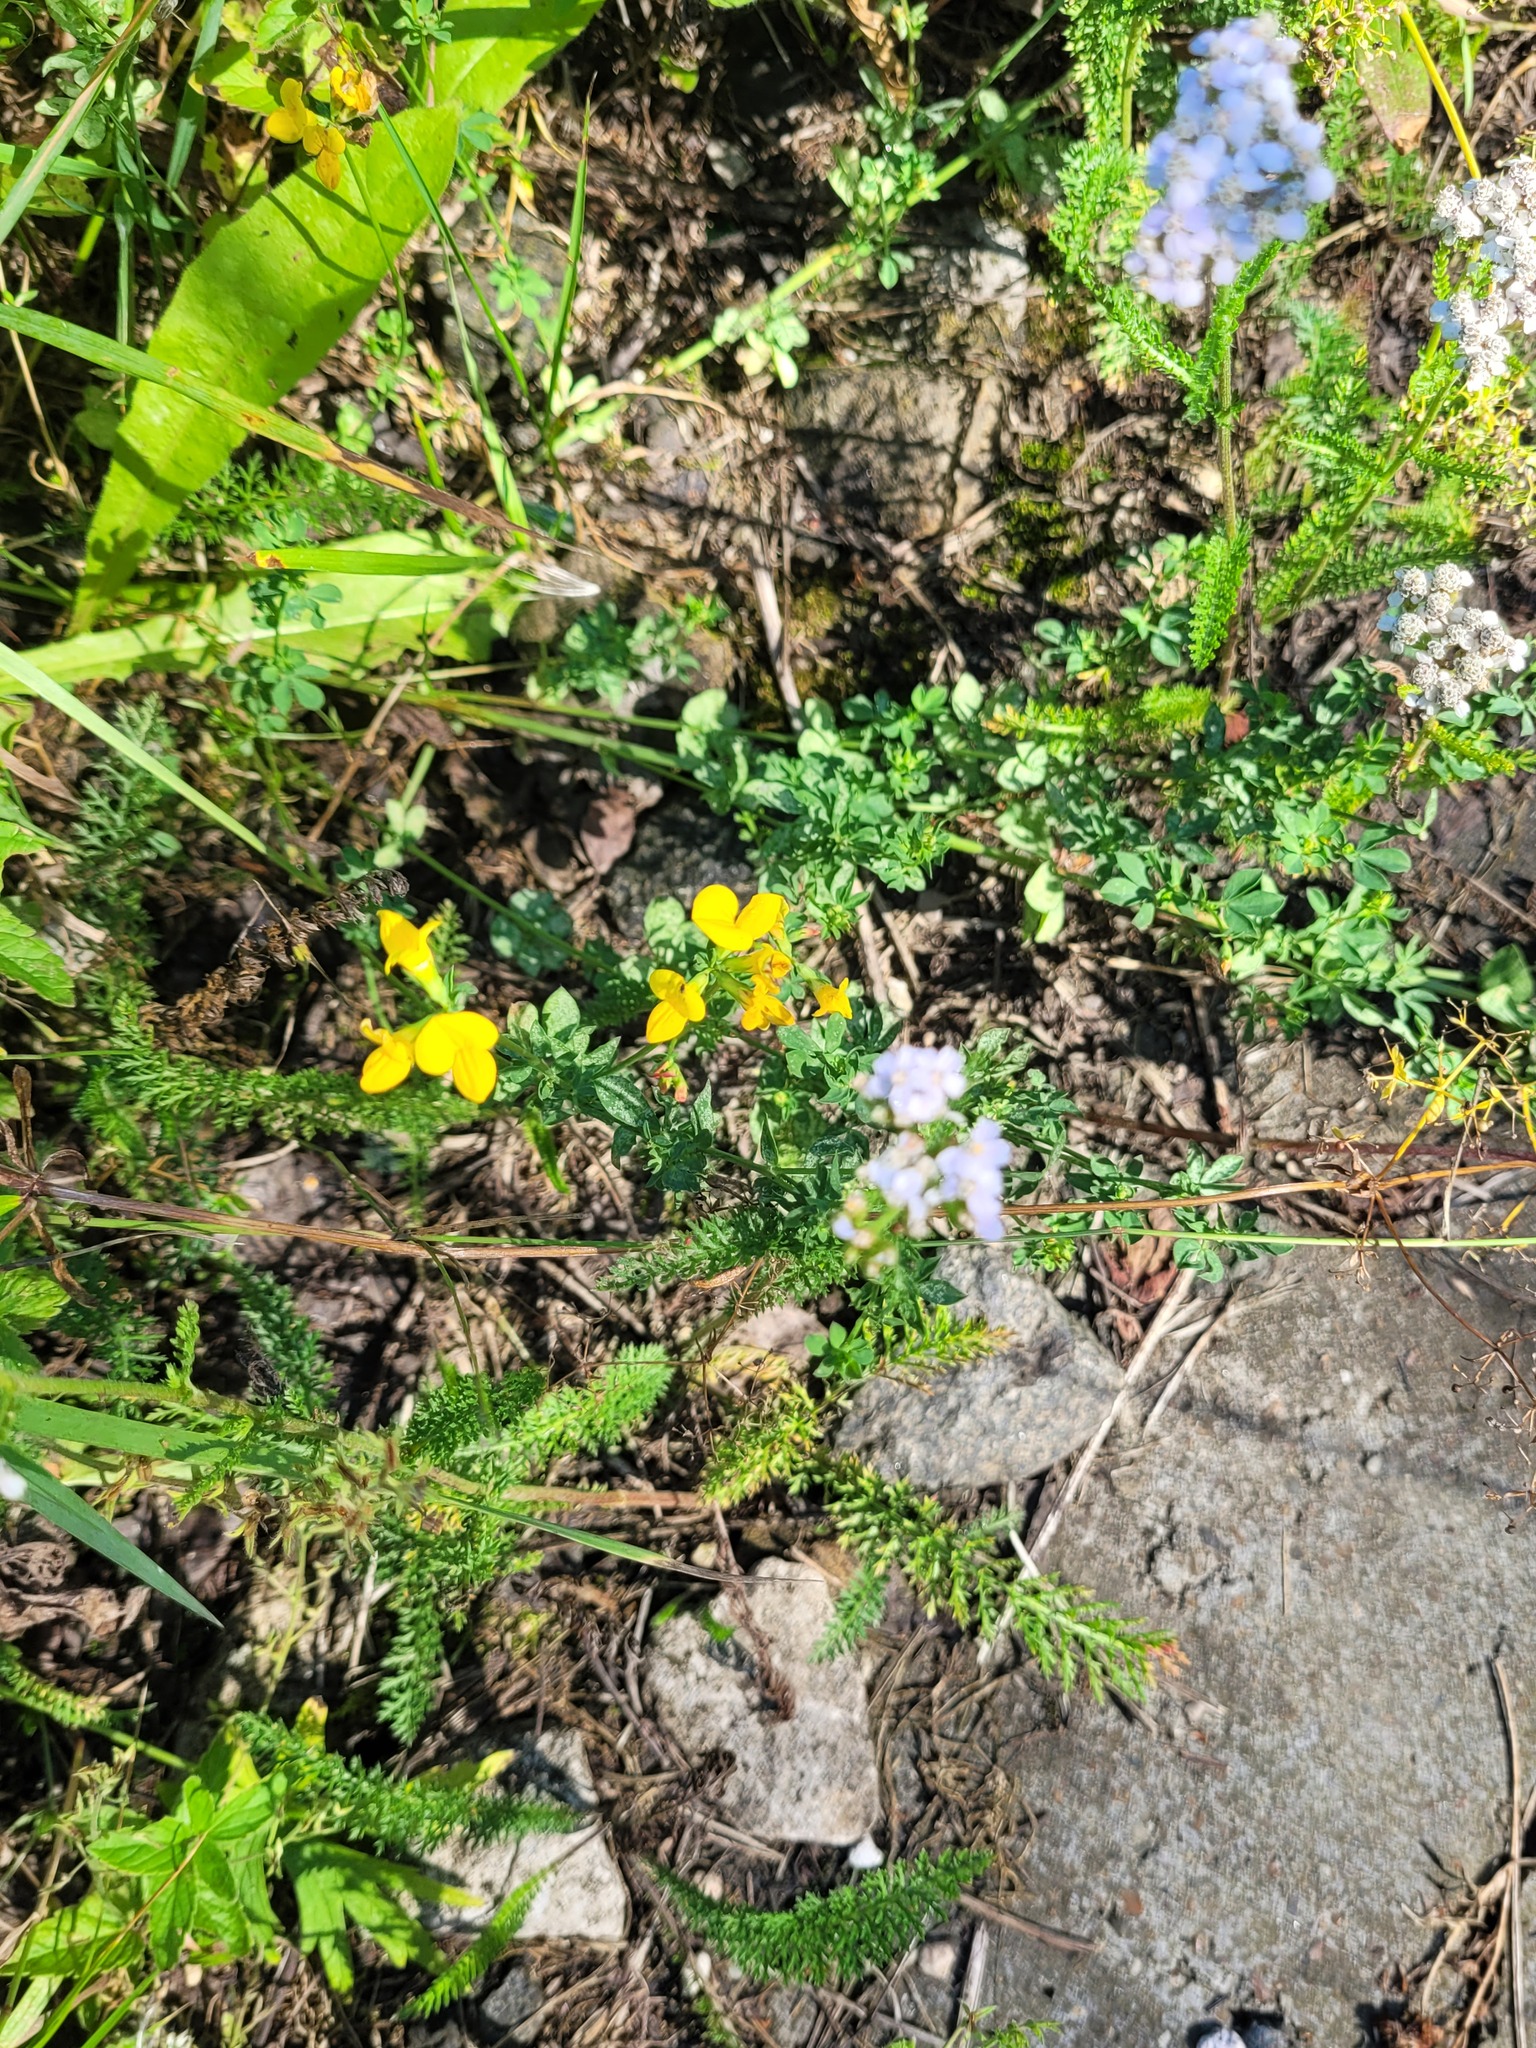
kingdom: Plantae
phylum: Tracheophyta
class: Magnoliopsida
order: Fabales
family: Fabaceae
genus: Lotus
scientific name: Lotus corniculatus
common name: Common bird's-foot-trefoil
